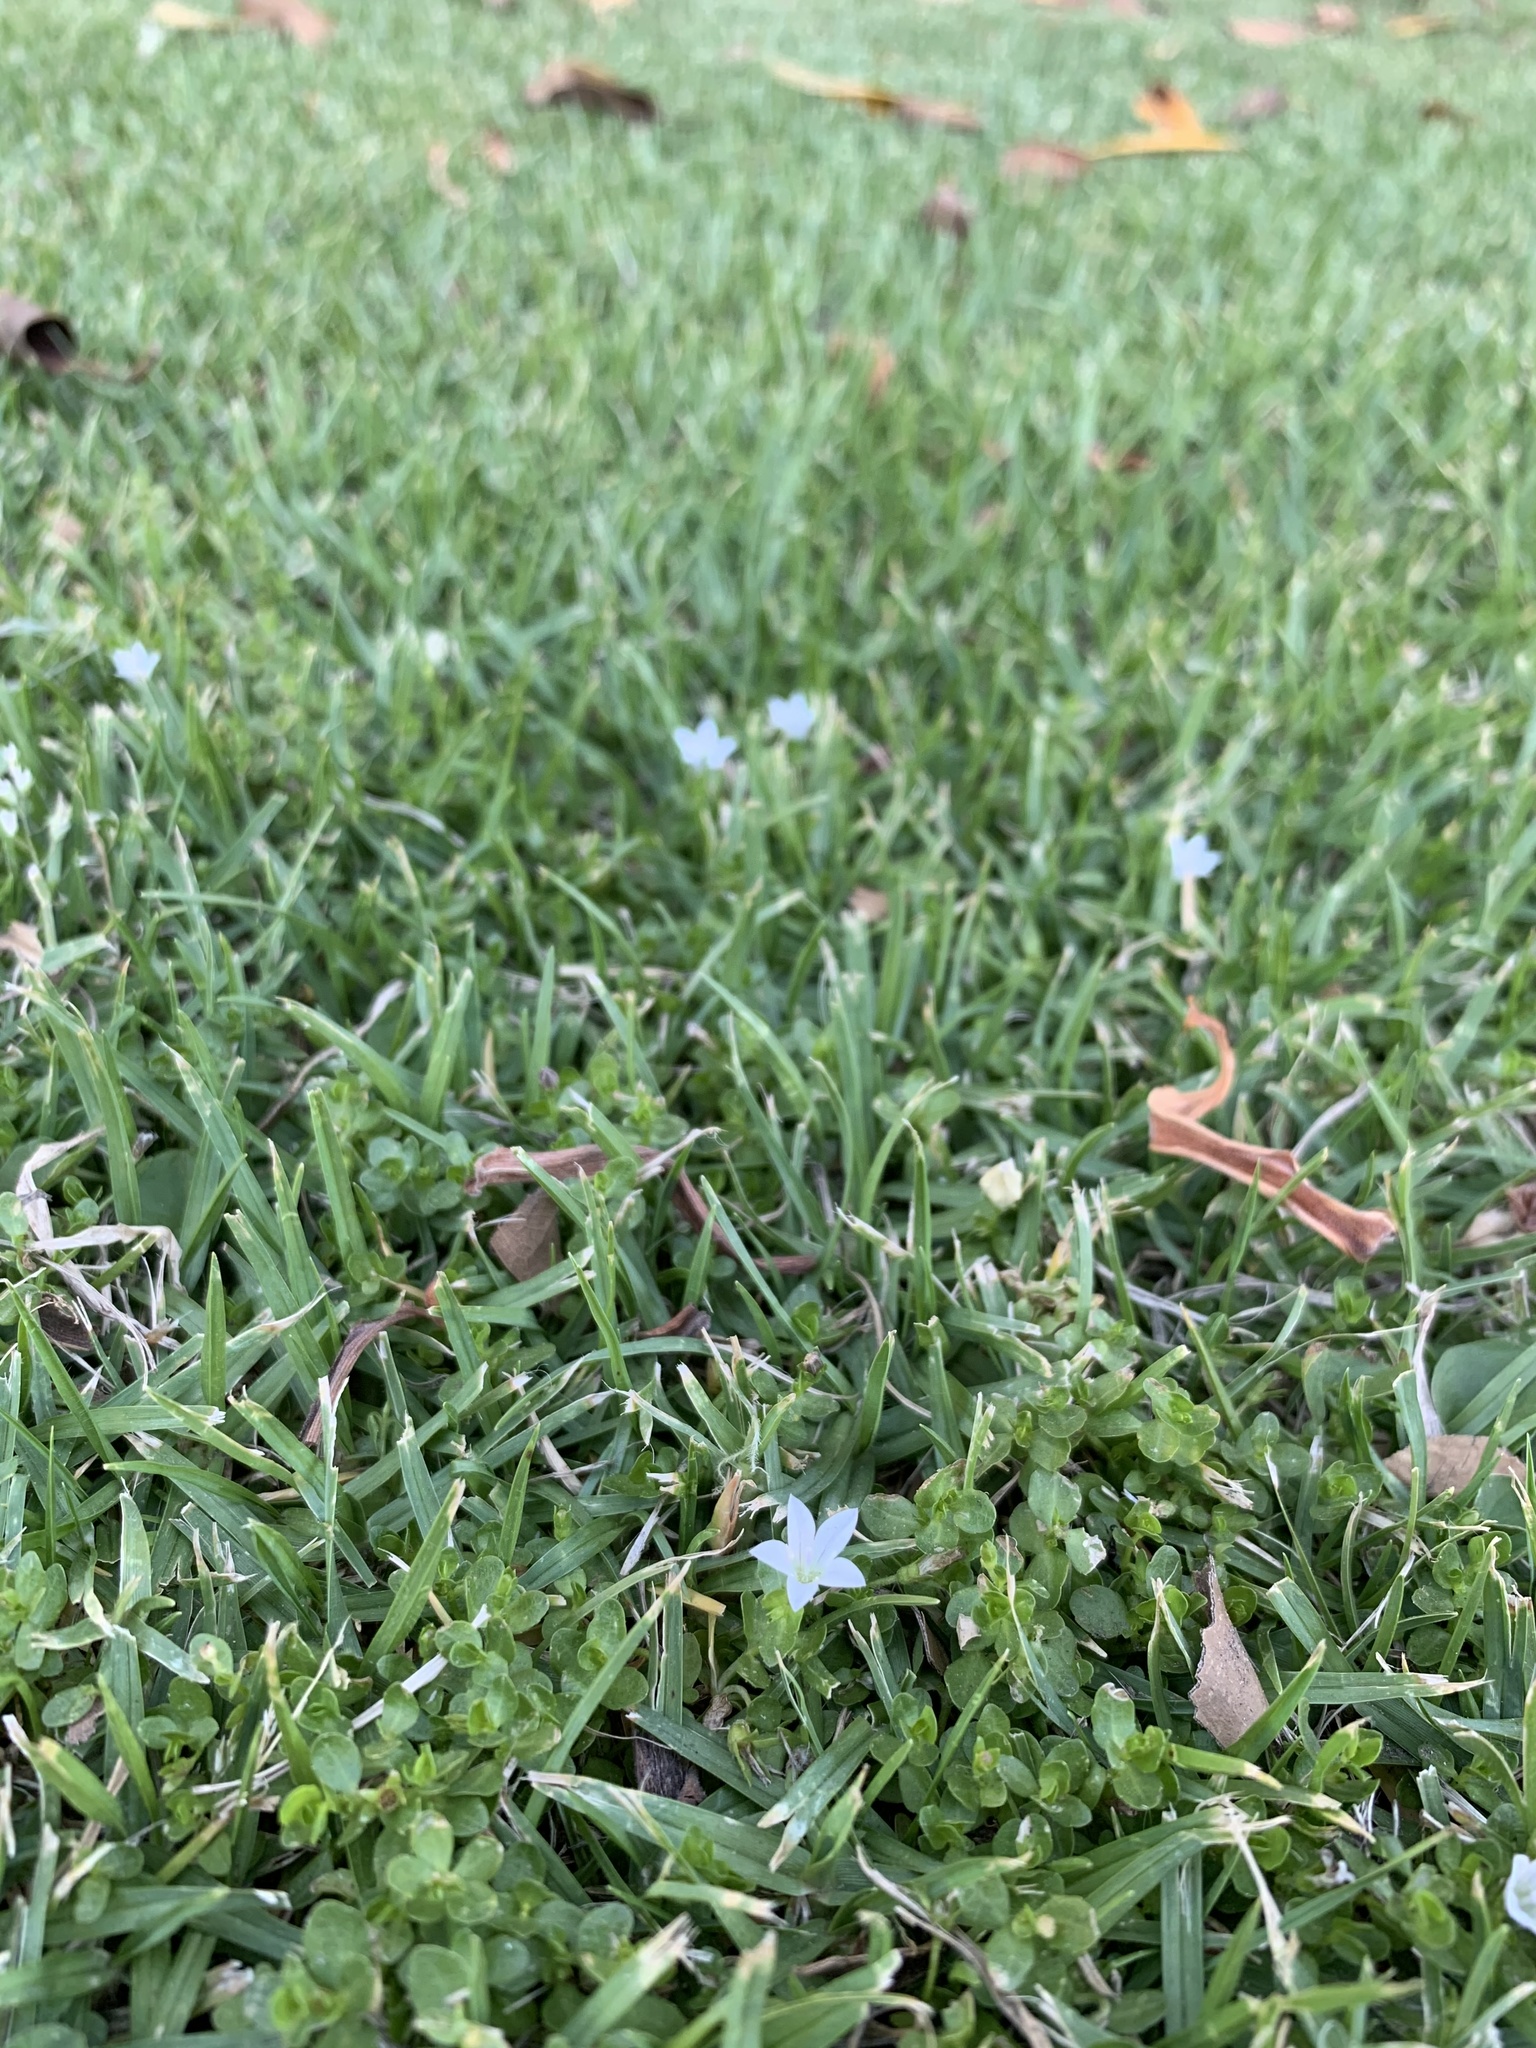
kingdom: Plantae
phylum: Tracheophyta
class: Magnoliopsida
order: Asterales
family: Campanulaceae
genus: Wahlenbergia
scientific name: Wahlenbergia procumbens
